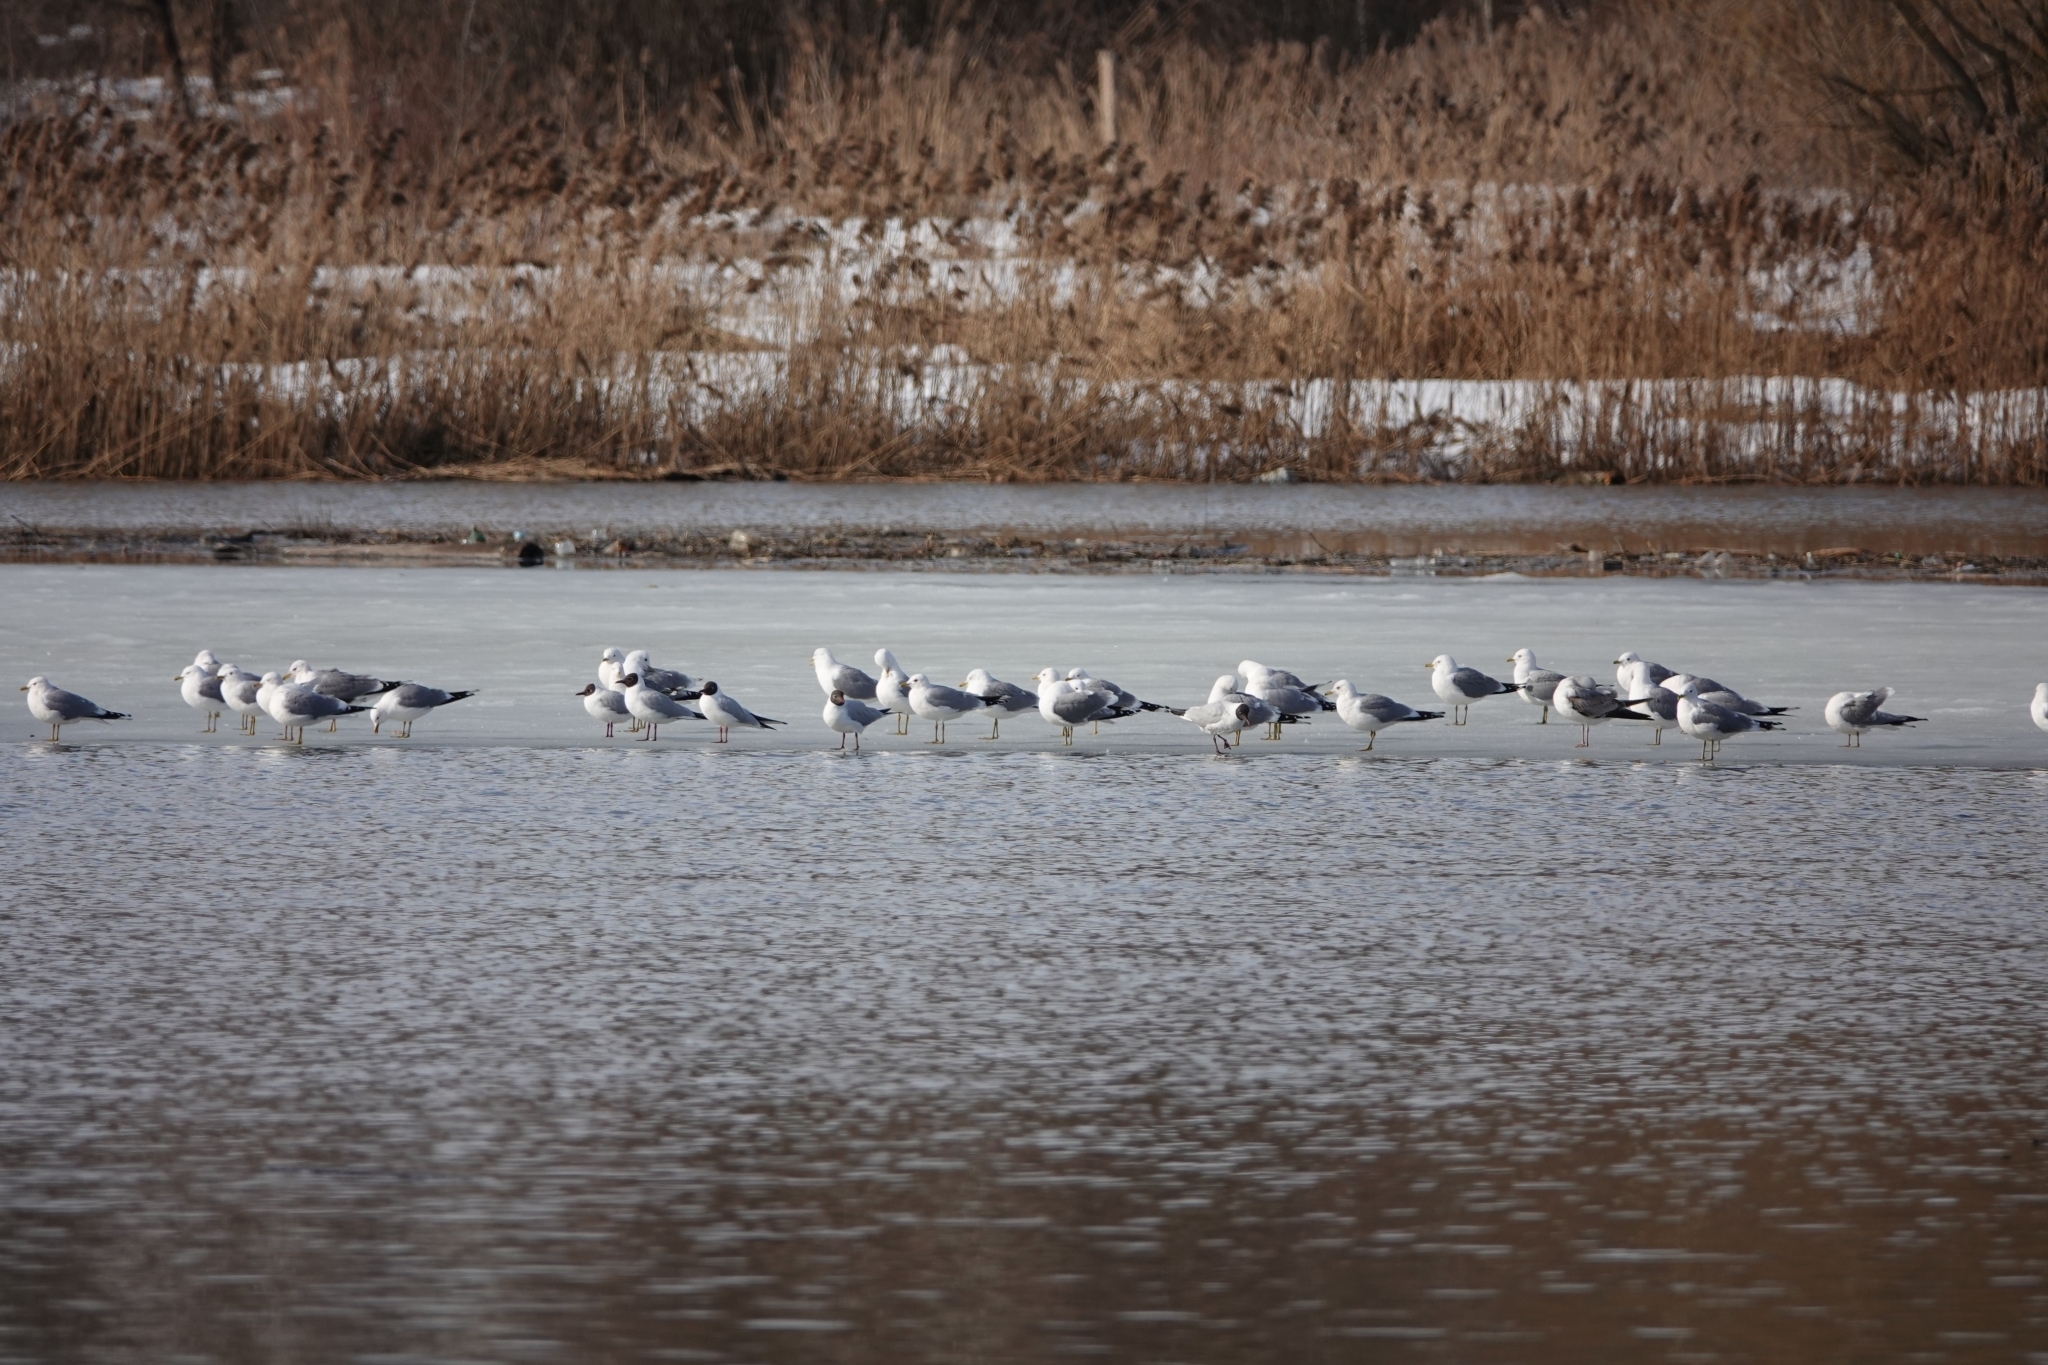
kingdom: Animalia
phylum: Chordata
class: Aves
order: Charadriiformes
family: Laridae
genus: Larus
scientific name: Larus canus
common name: Mew gull
